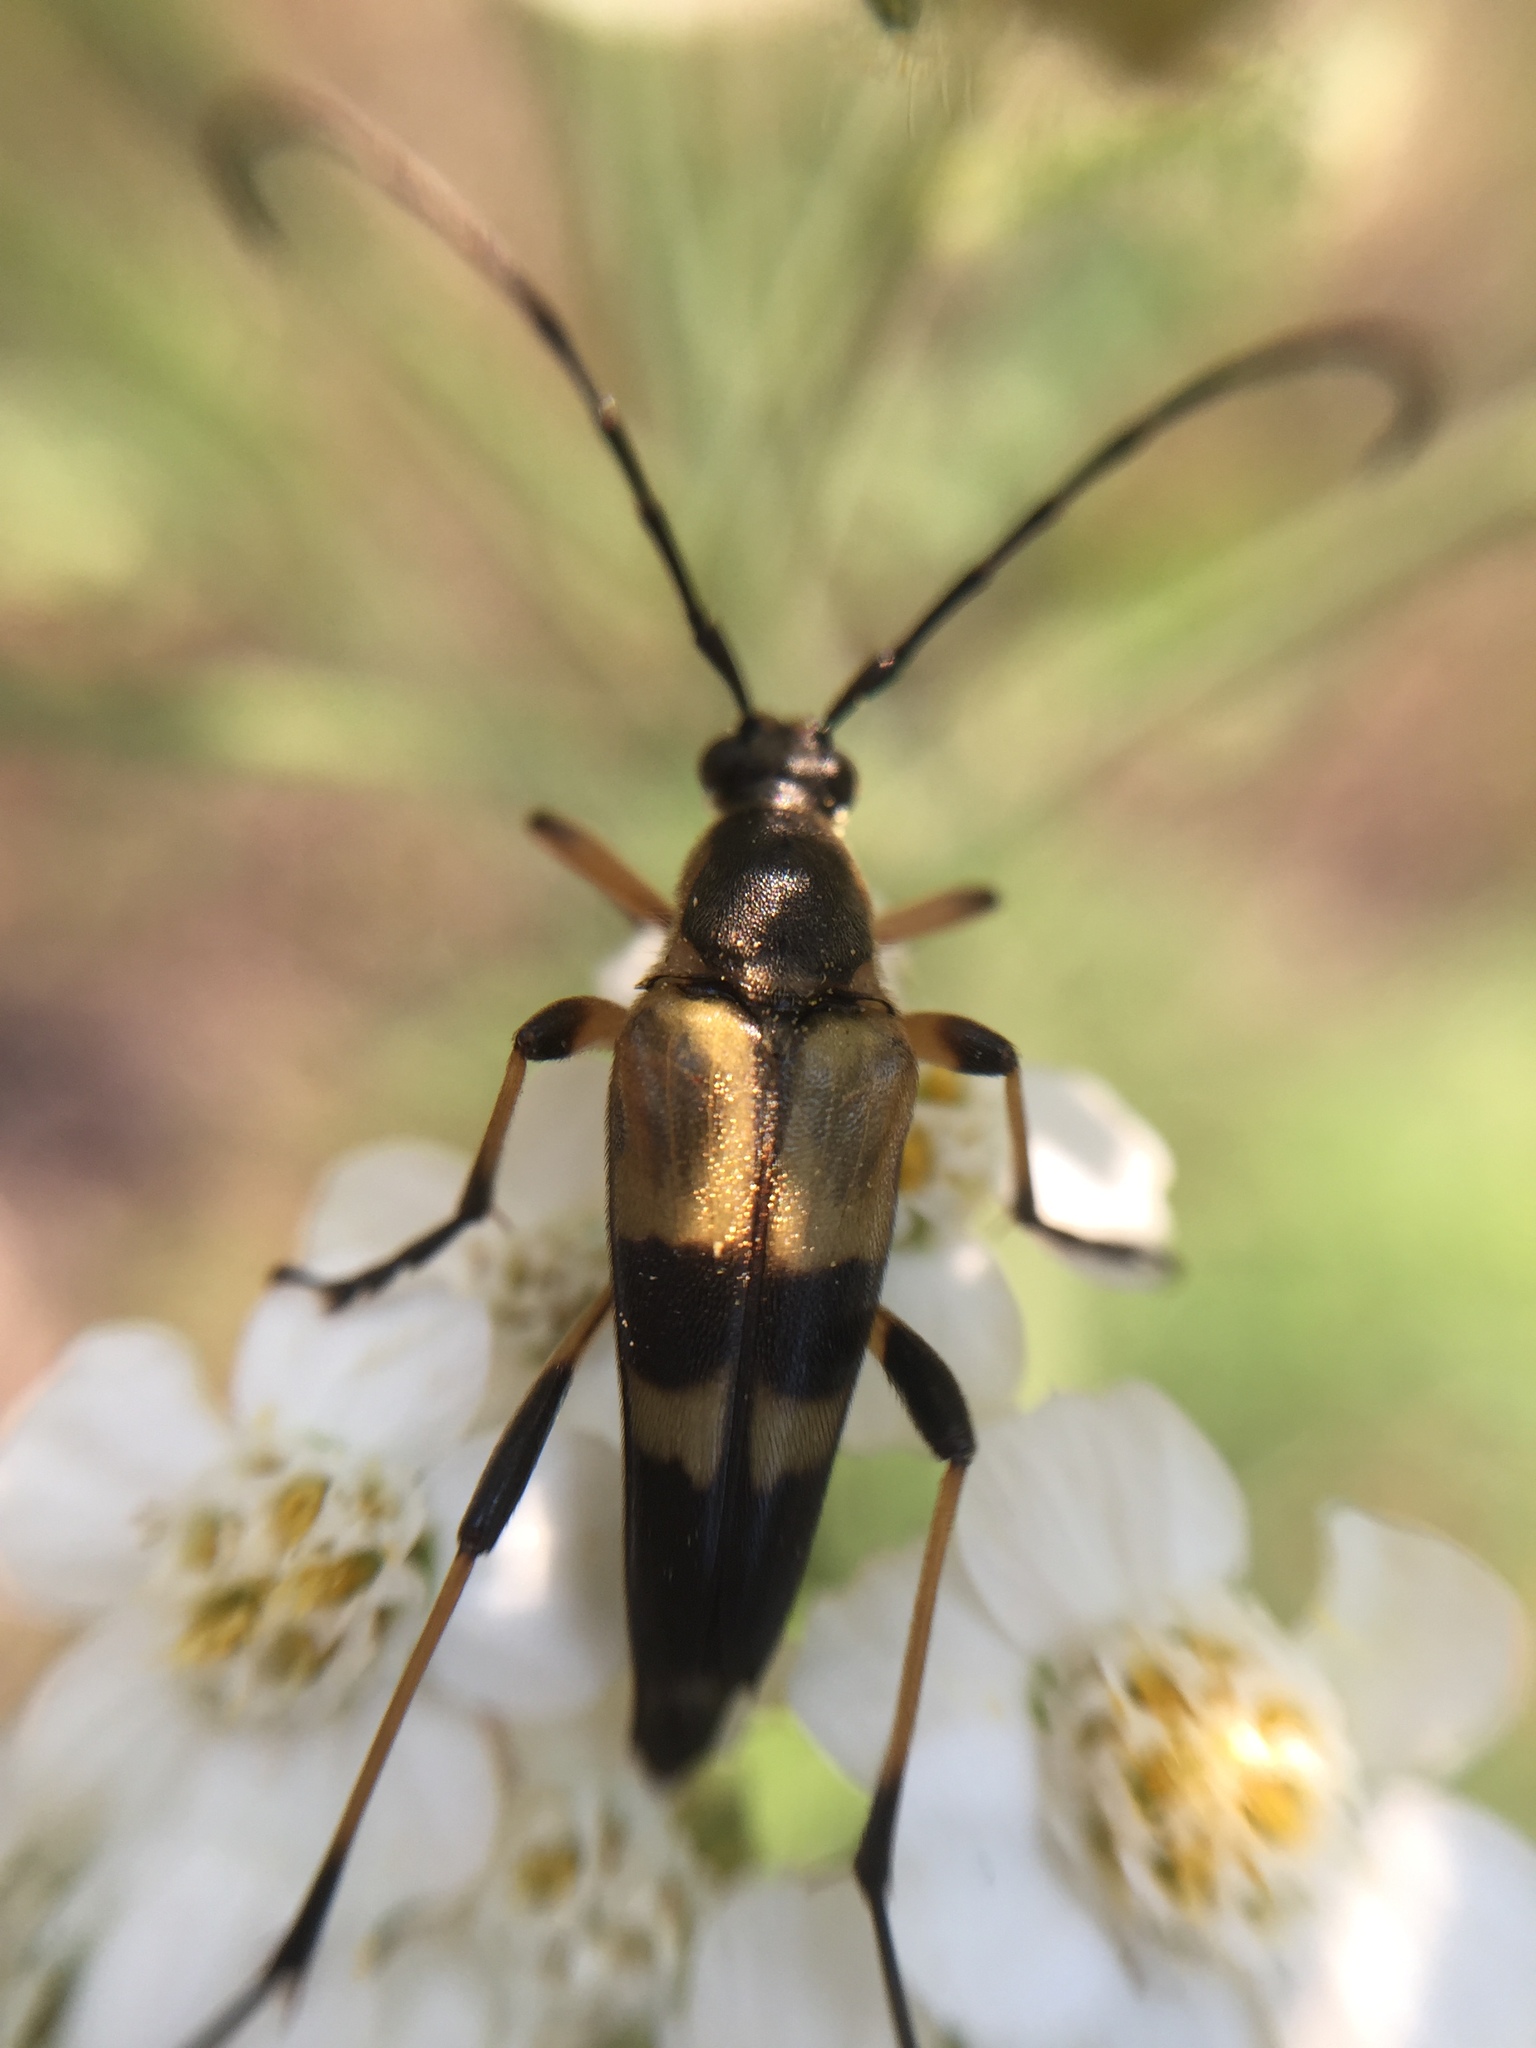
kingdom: Animalia
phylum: Arthropoda
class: Insecta
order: Coleoptera
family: Cerambycidae
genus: Etorofus
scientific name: Etorofus obliteratus
